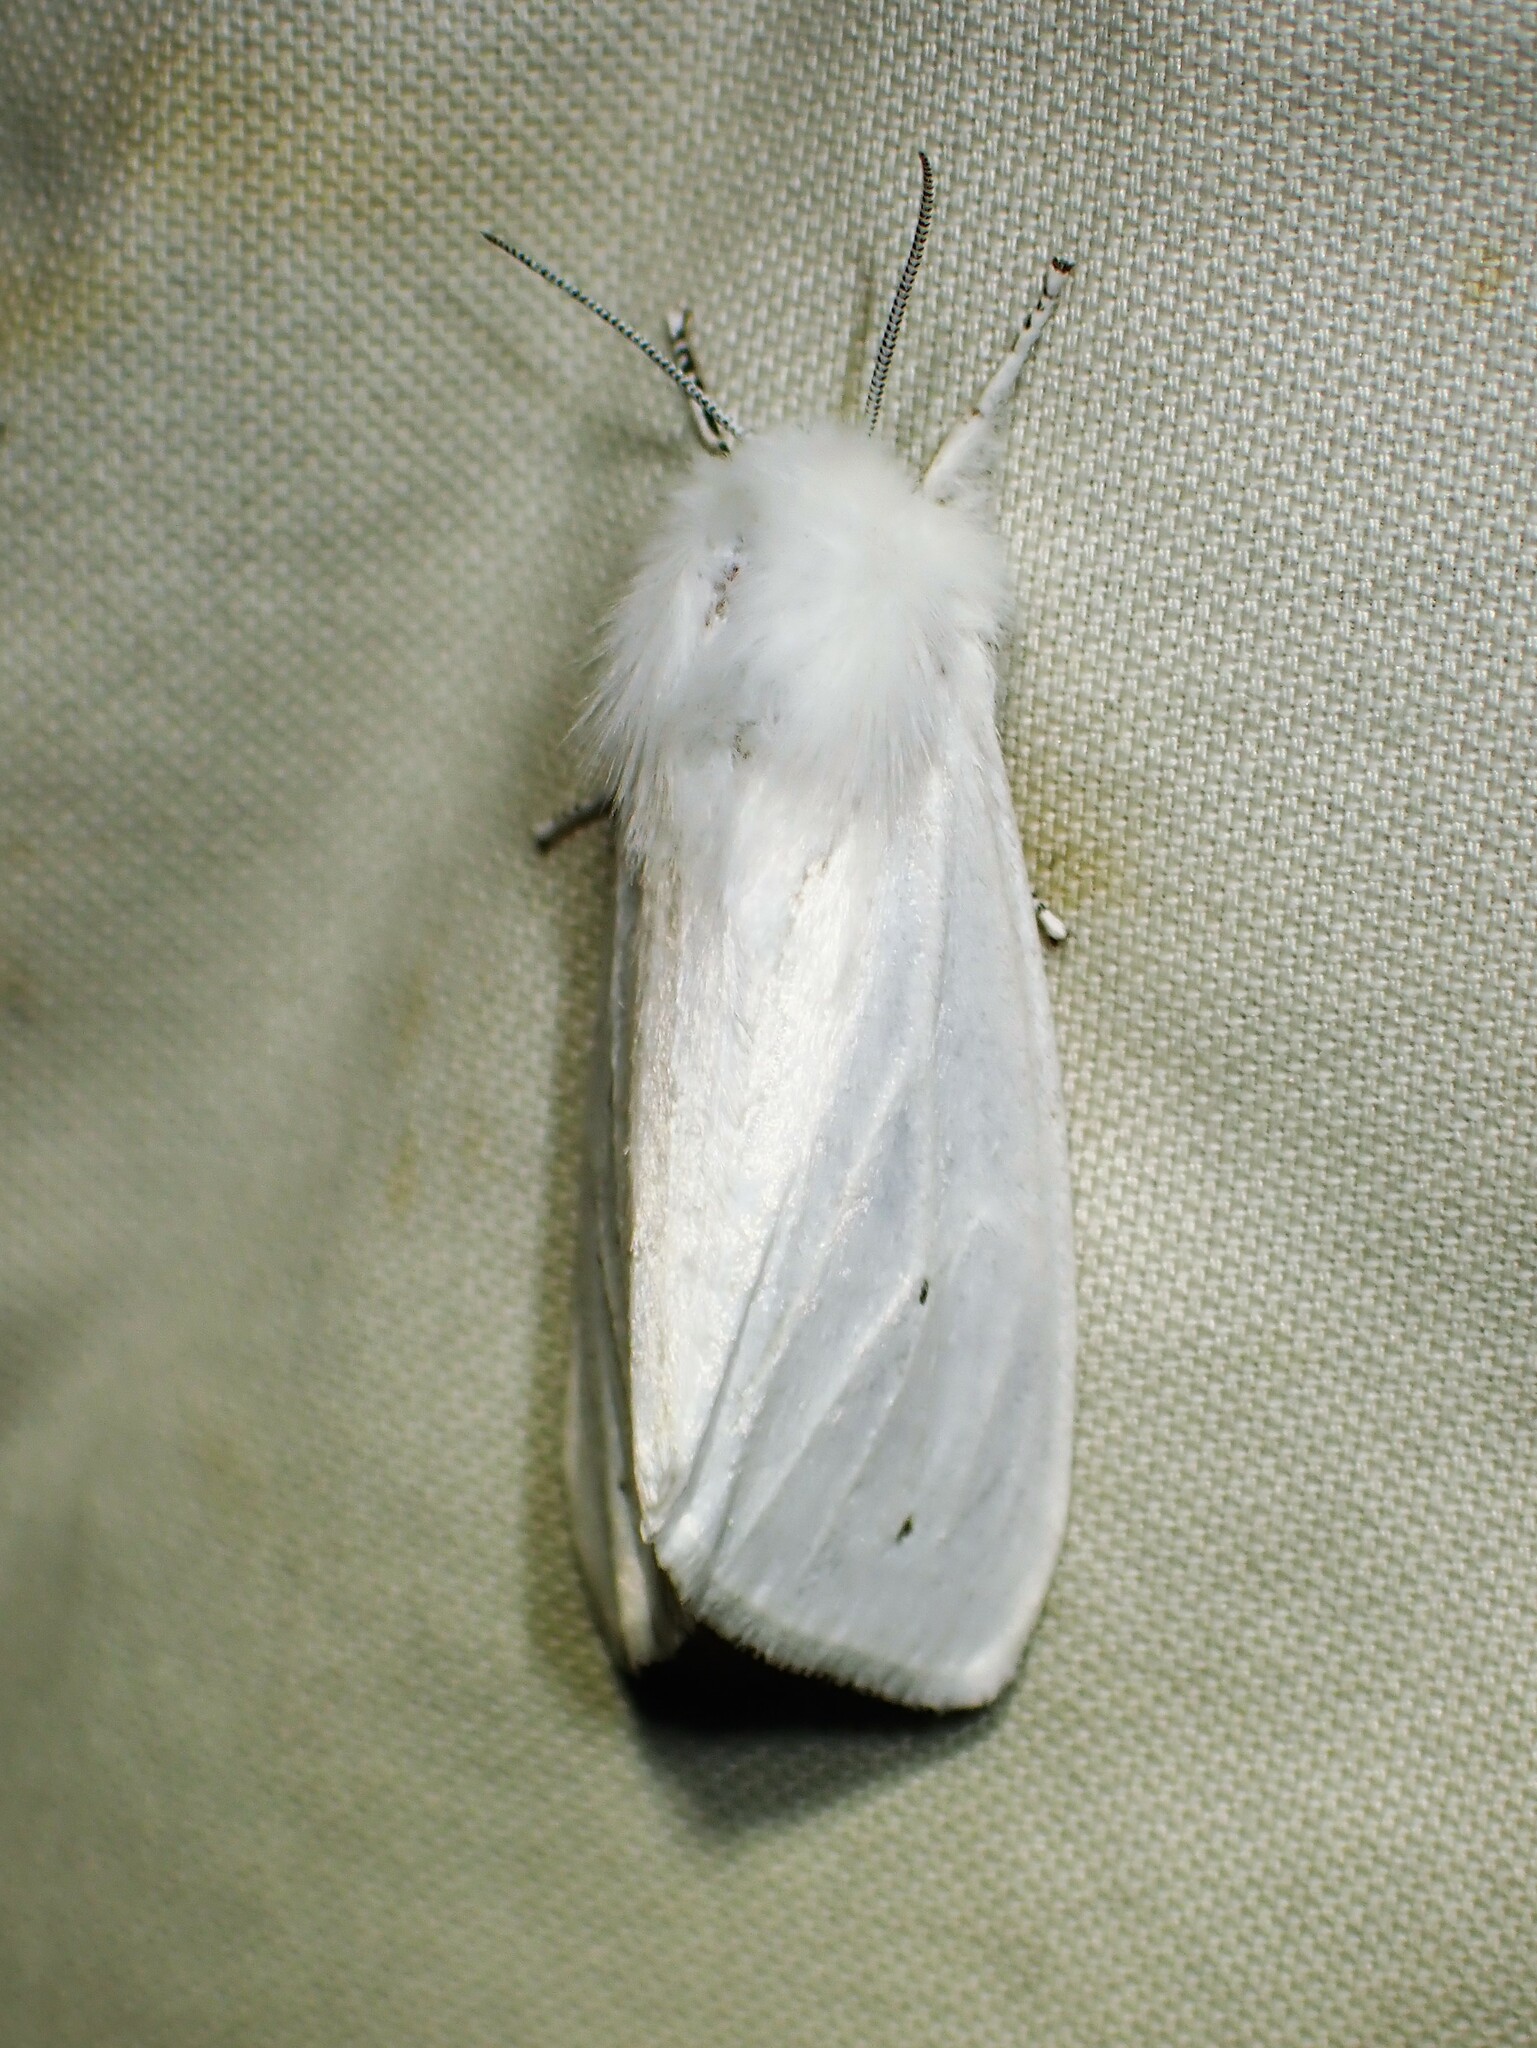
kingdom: Animalia
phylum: Arthropoda
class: Insecta
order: Lepidoptera
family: Erebidae
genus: Spilosoma
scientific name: Spilosoma virginica
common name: Virginia tiger moth
